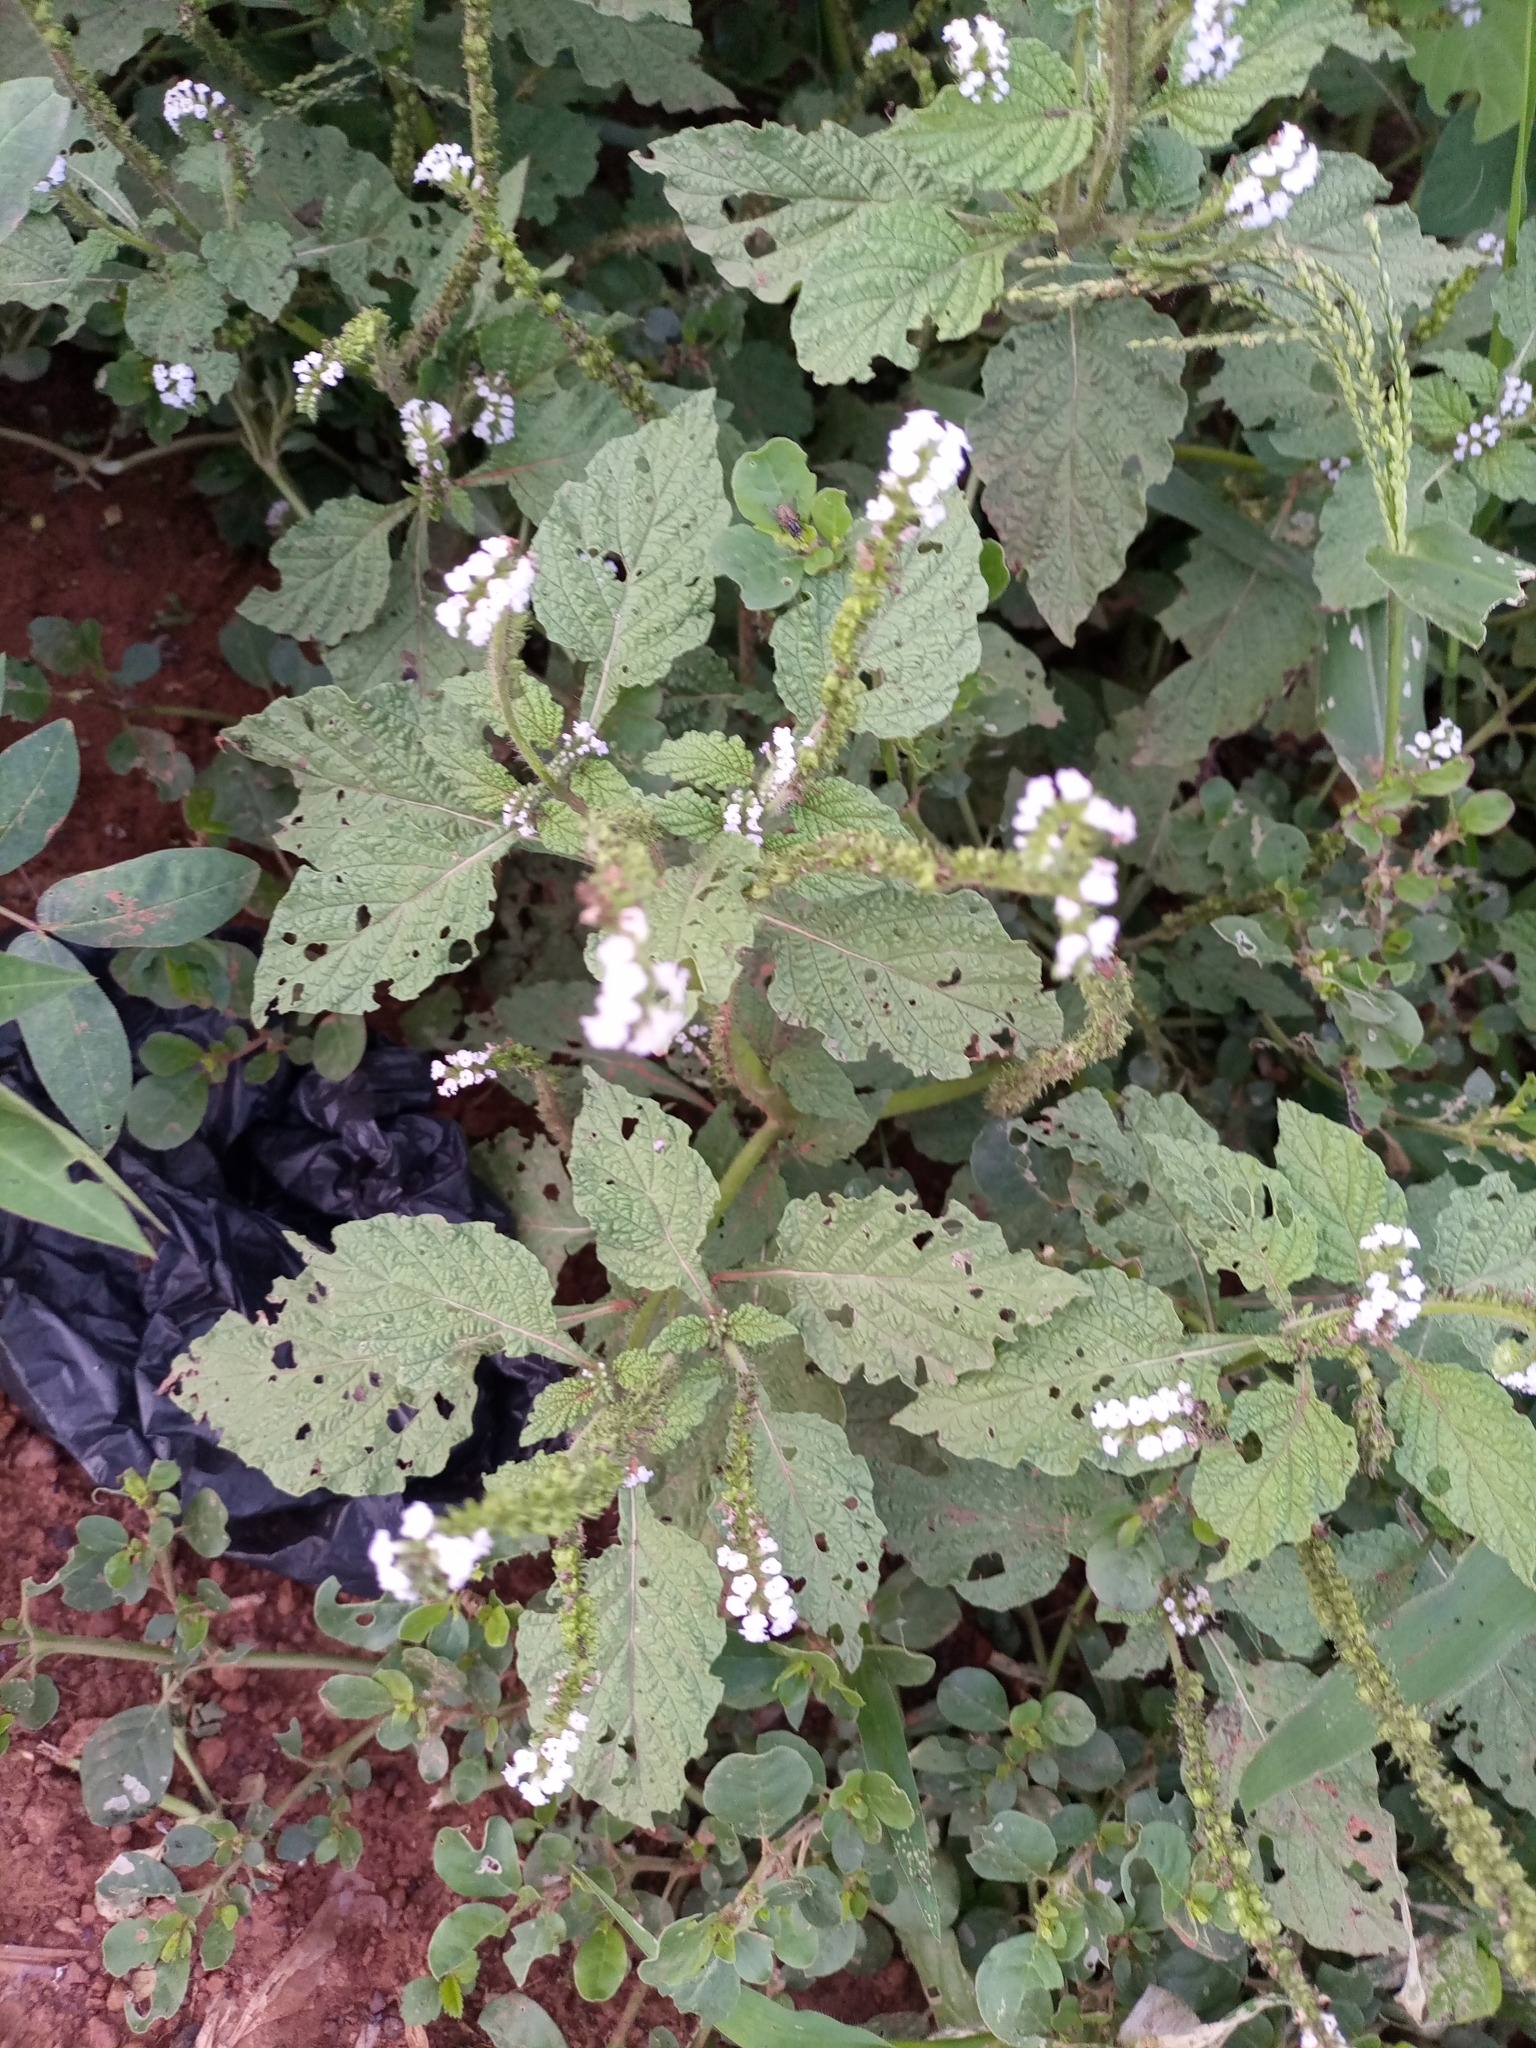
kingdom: Plantae
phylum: Tracheophyta
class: Magnoliopsida
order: Boraginales
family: Heliotropiaceae
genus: Heliotropium
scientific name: Heliotropium indicum
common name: Indian heliotrope
